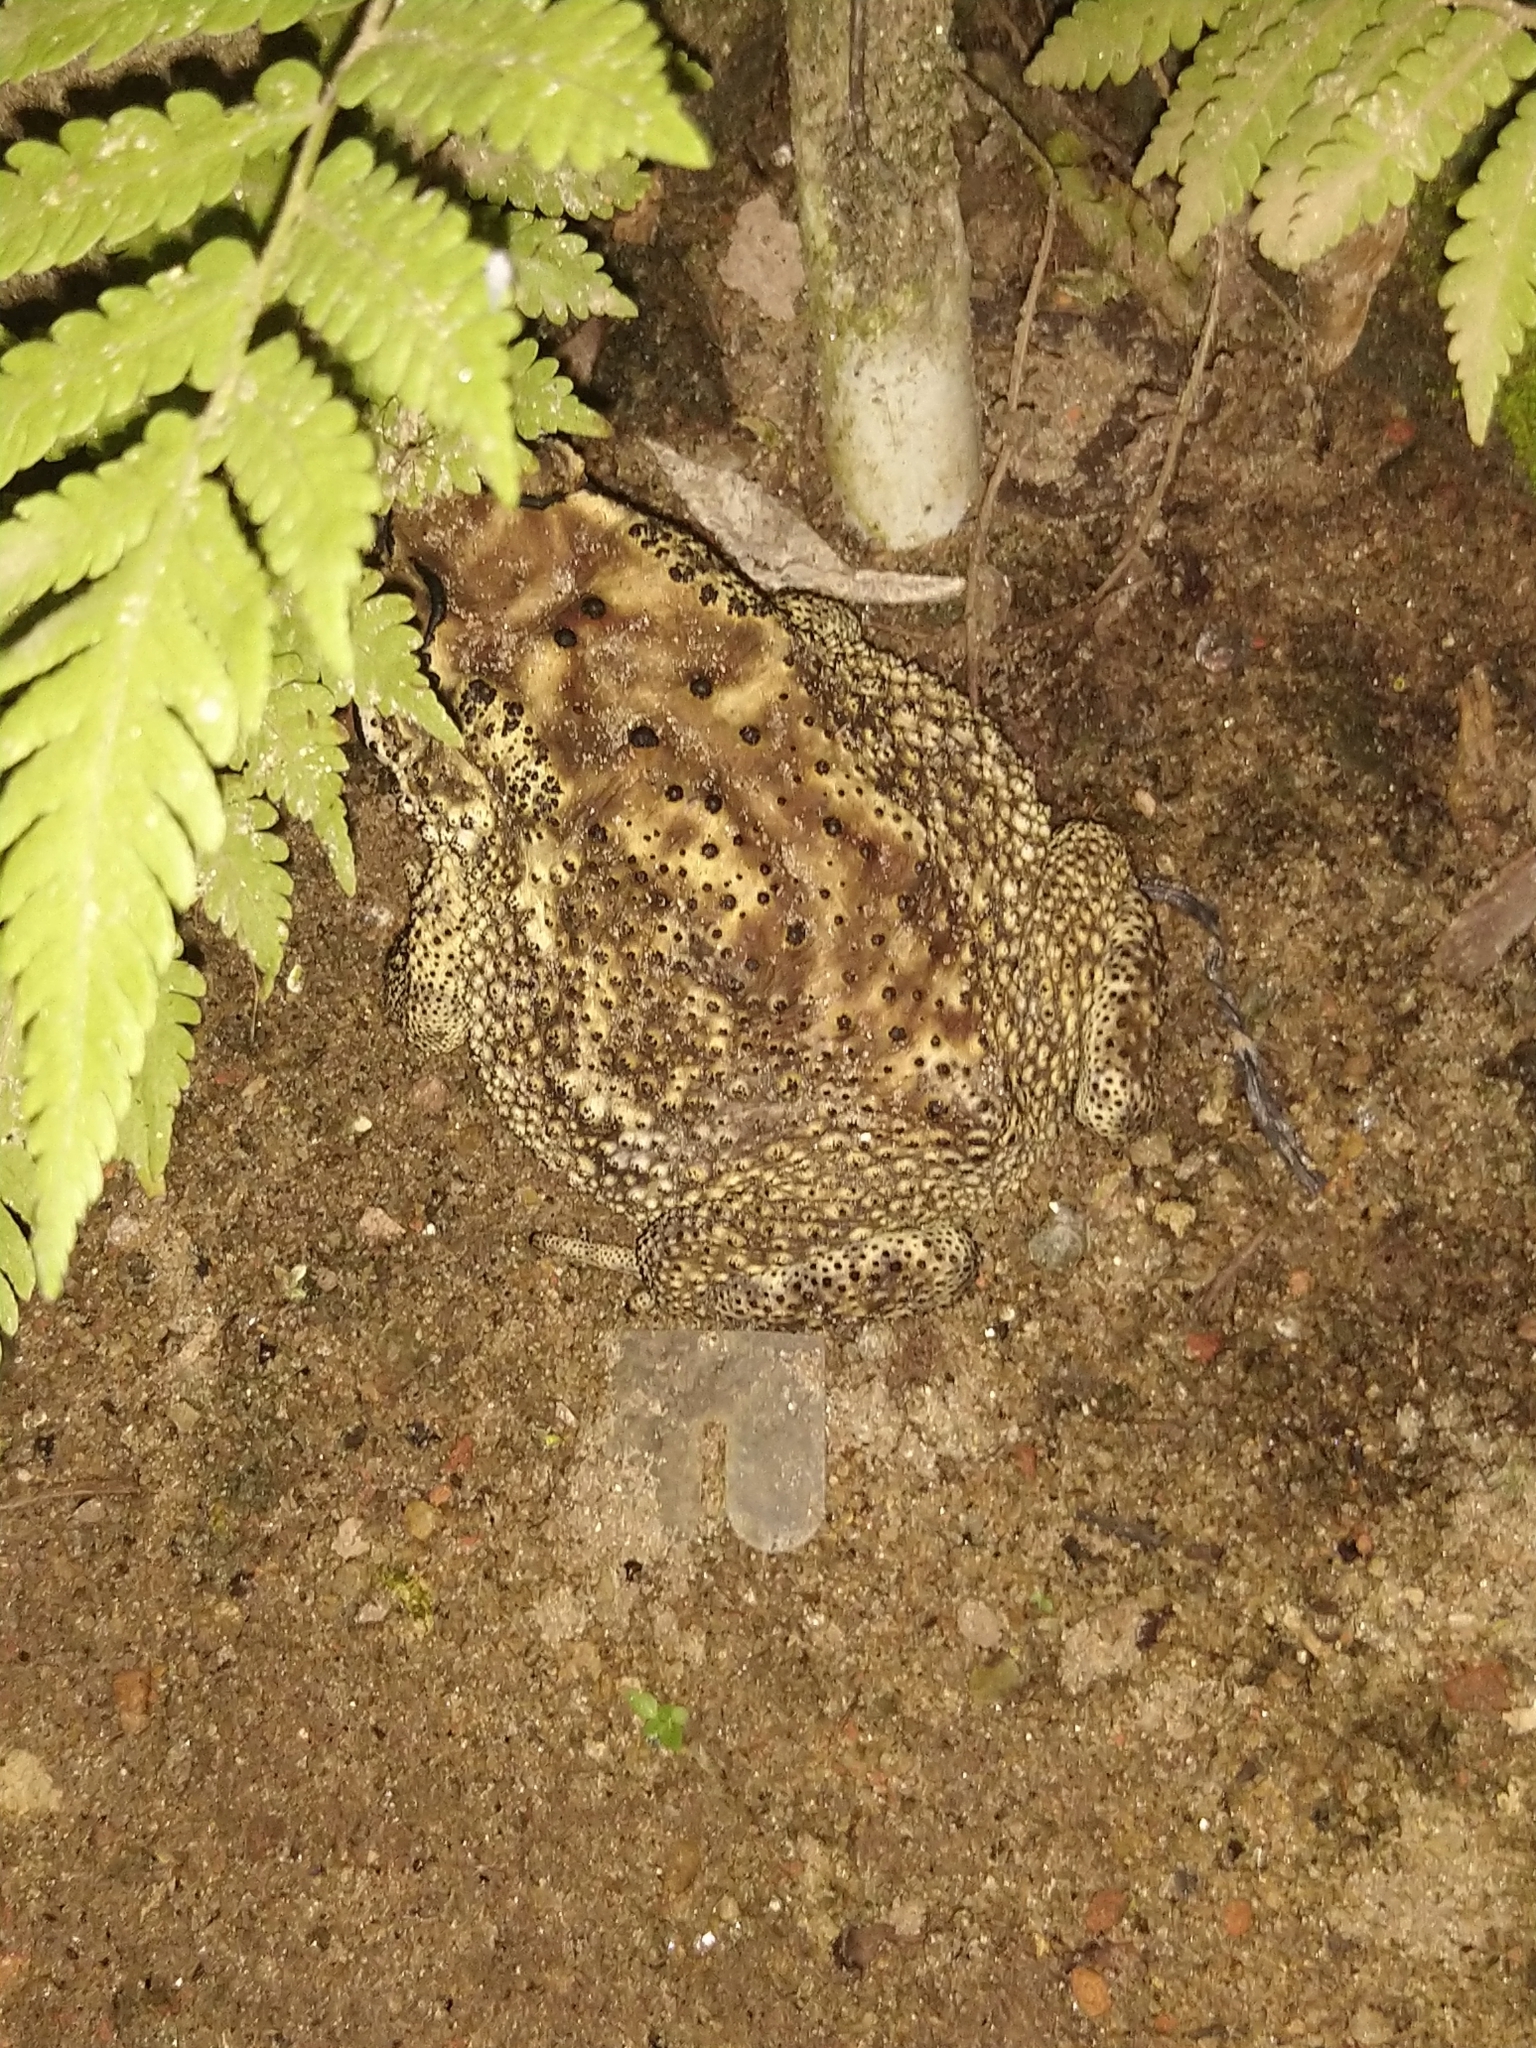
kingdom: Animalia
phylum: Chordata
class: Amphibia
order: Anura
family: Bufonidae
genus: Duttaphrynus
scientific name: Duttaphrynus melanostictus
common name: Common sunda toad
